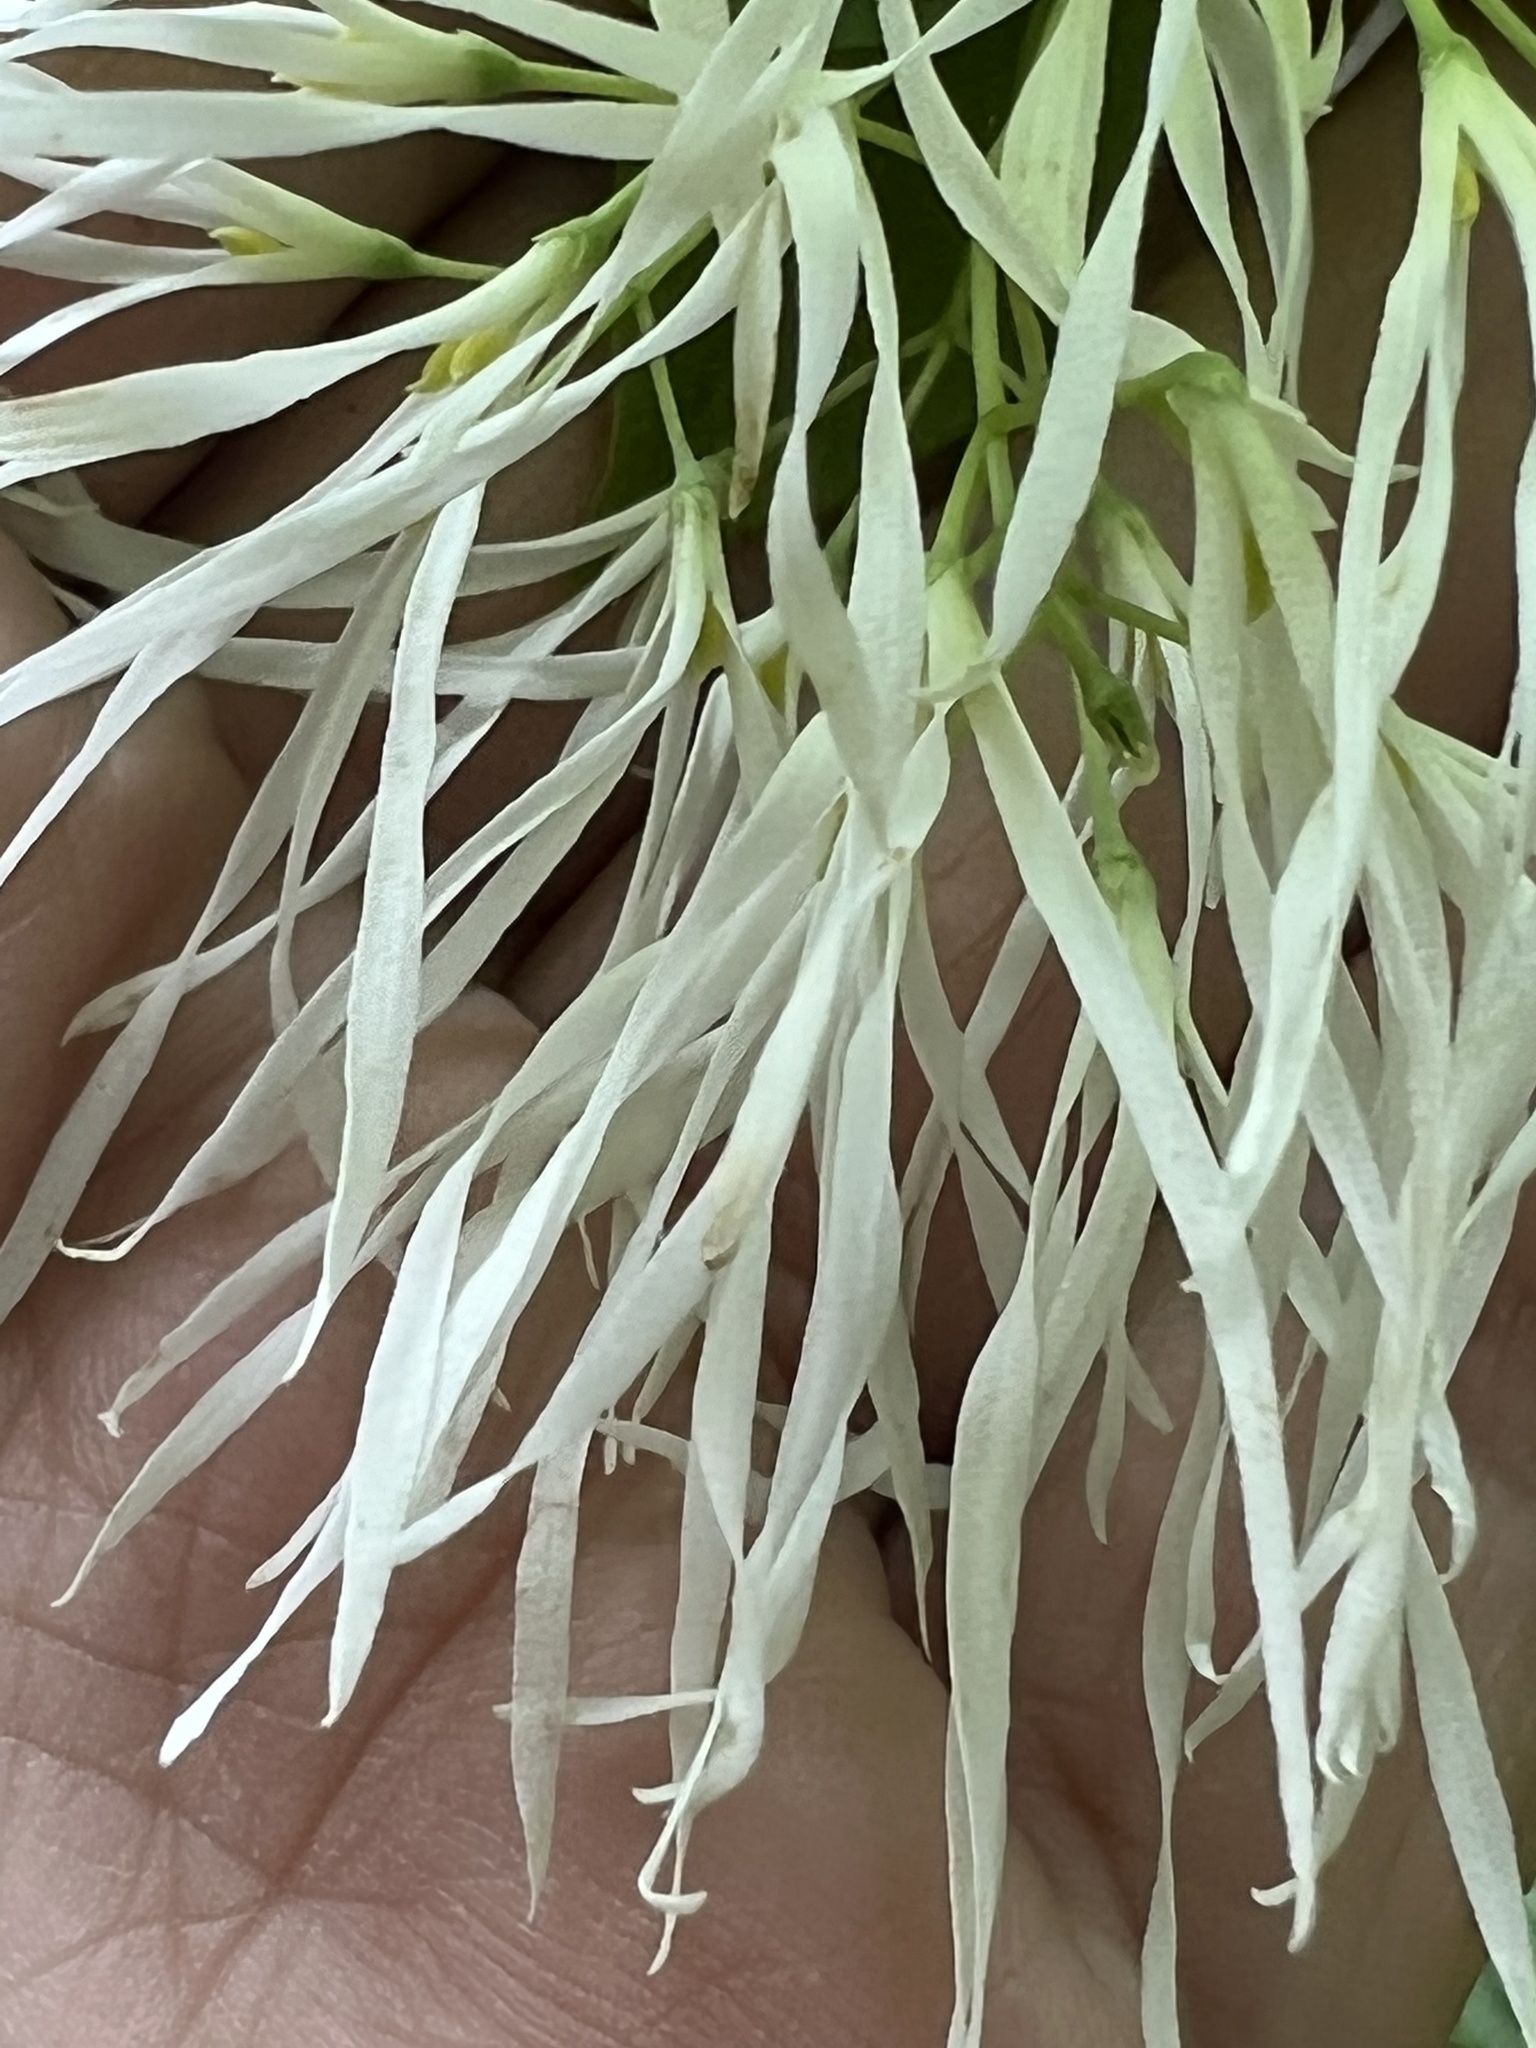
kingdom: Plantae
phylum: Tracheophyta
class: Magnoliopsida
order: Lamiales
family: Oleaceae
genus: Chionanthus
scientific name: Chionanthus virginicus
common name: American fringetree
